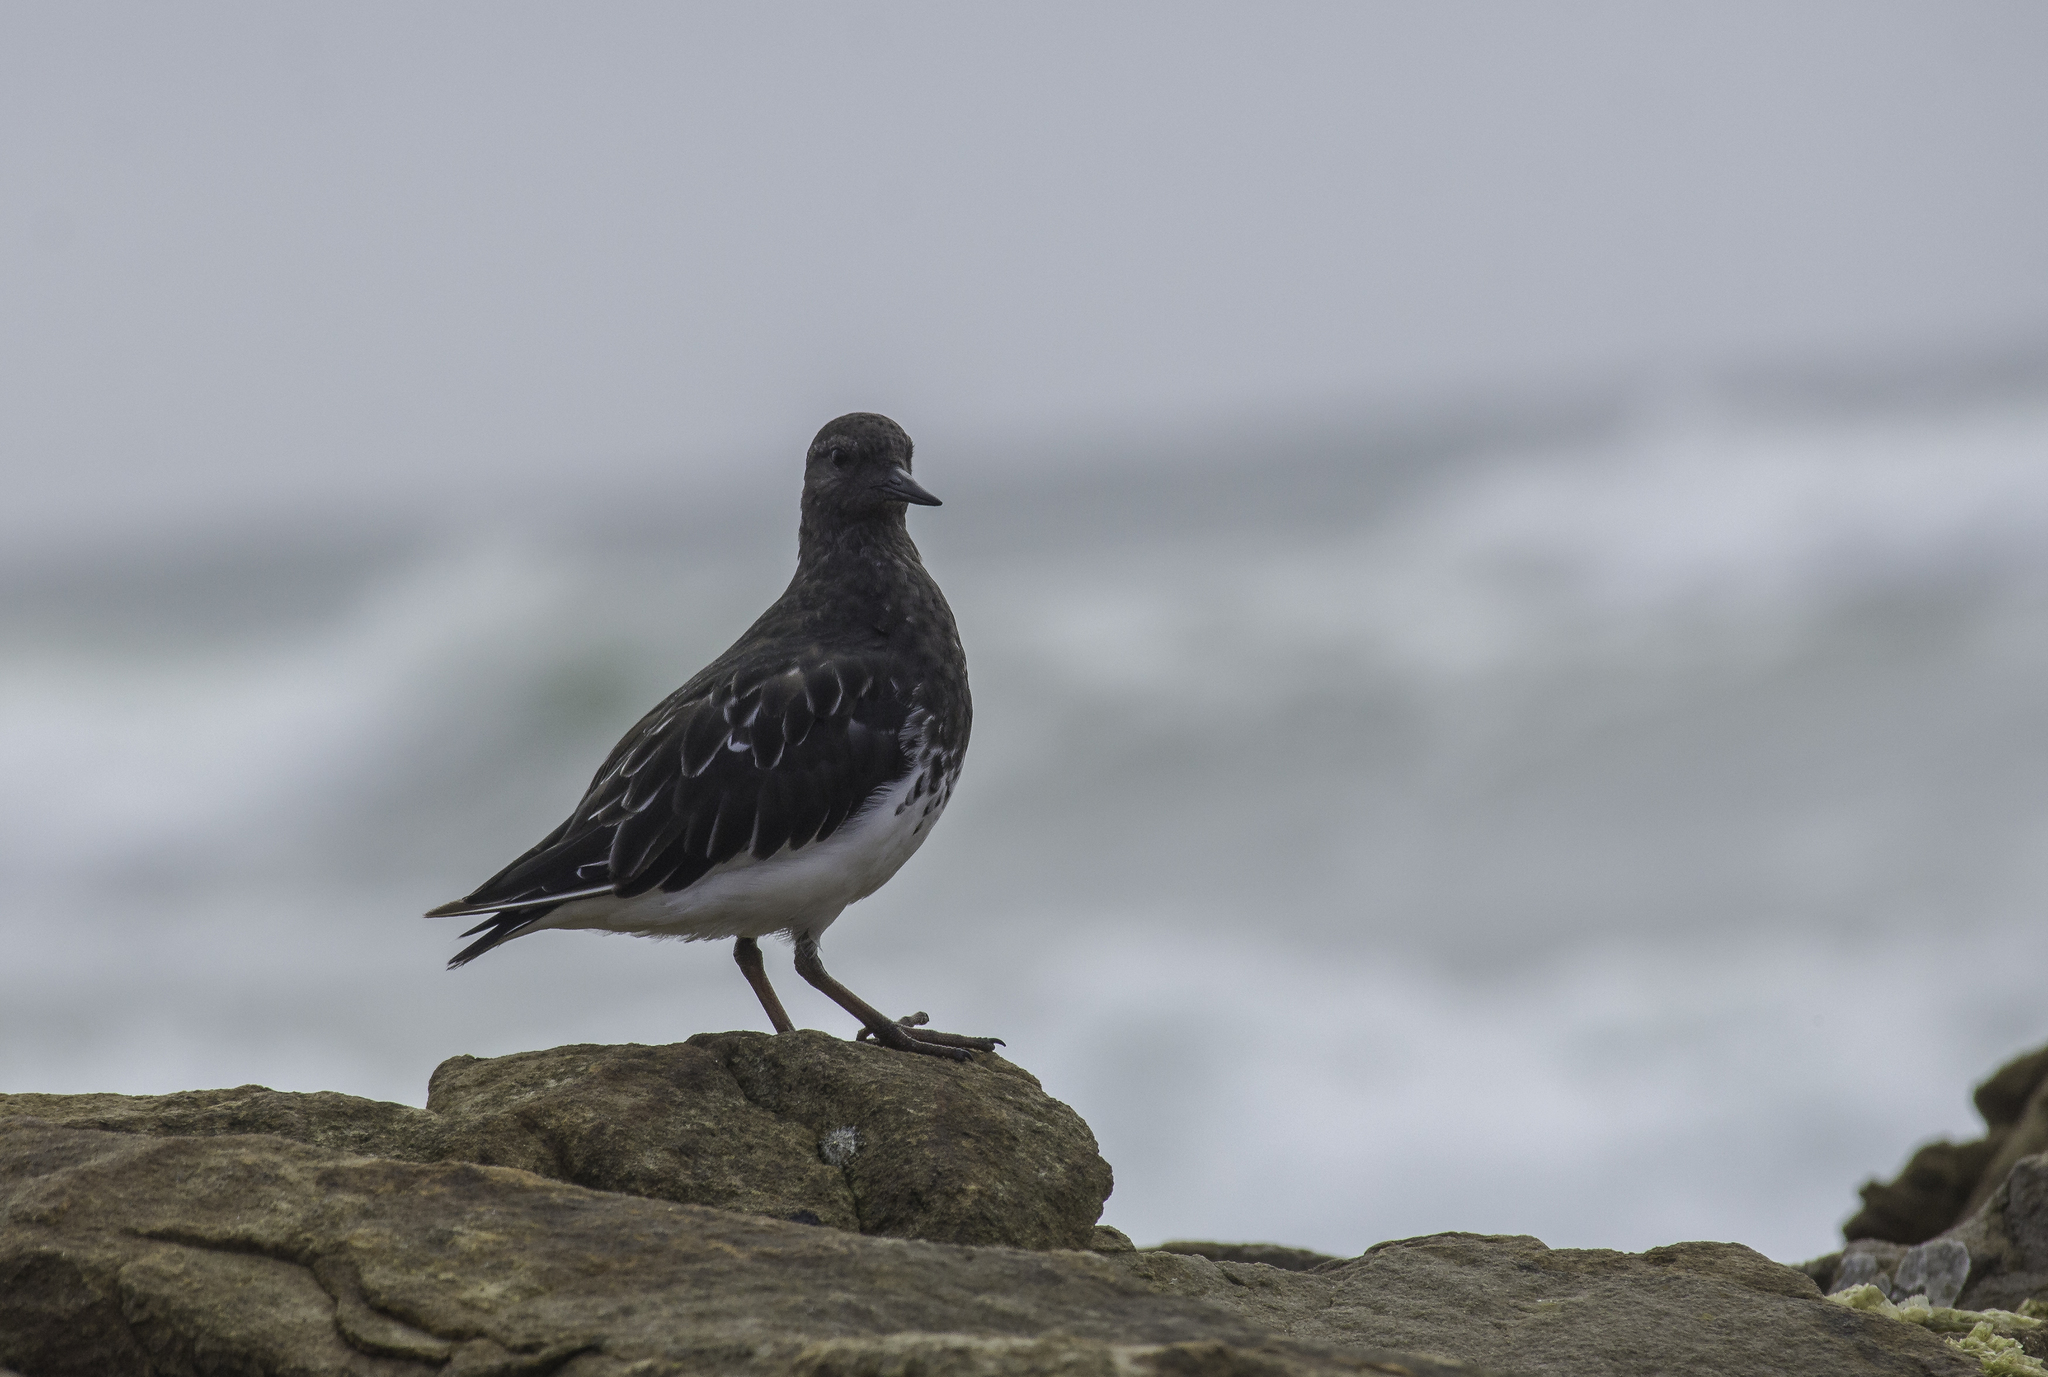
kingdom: Animalia
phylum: Chordata
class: Aves
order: Charadriiformes
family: Scolopacidae
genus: Arenaria
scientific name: Arenaria melanocephala
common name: Black turnstone
